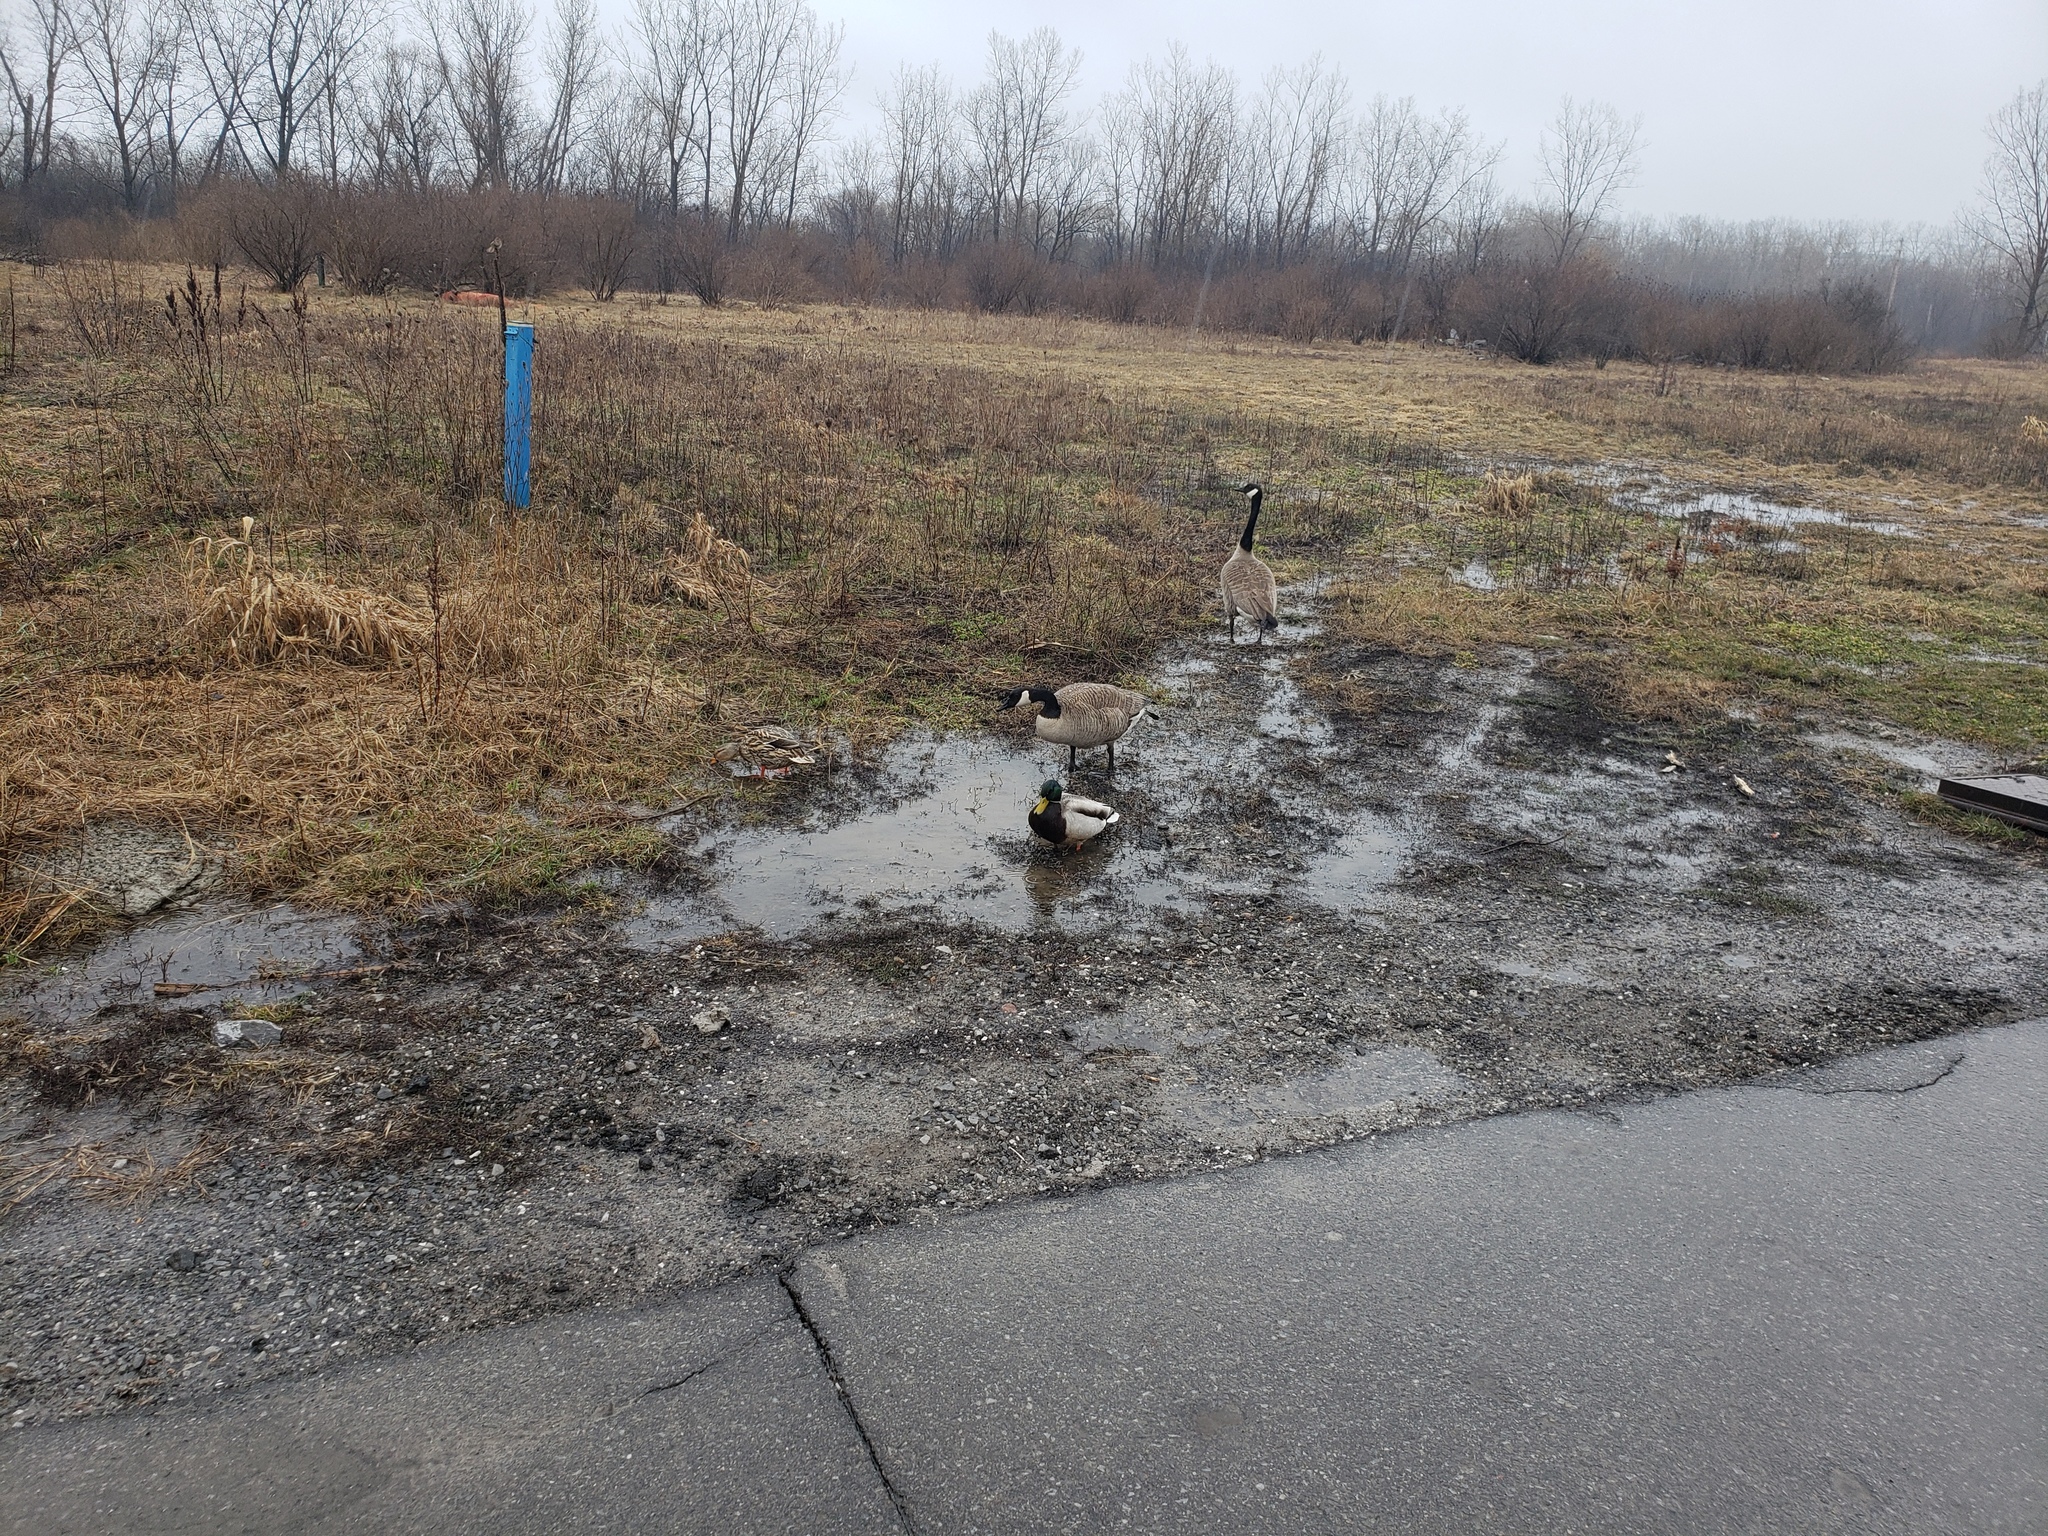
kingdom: Animalia
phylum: Chordata
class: Aves
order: Anseriformes
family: Anatidae
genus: Branta
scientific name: Branta canadensis
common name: Canada goose
